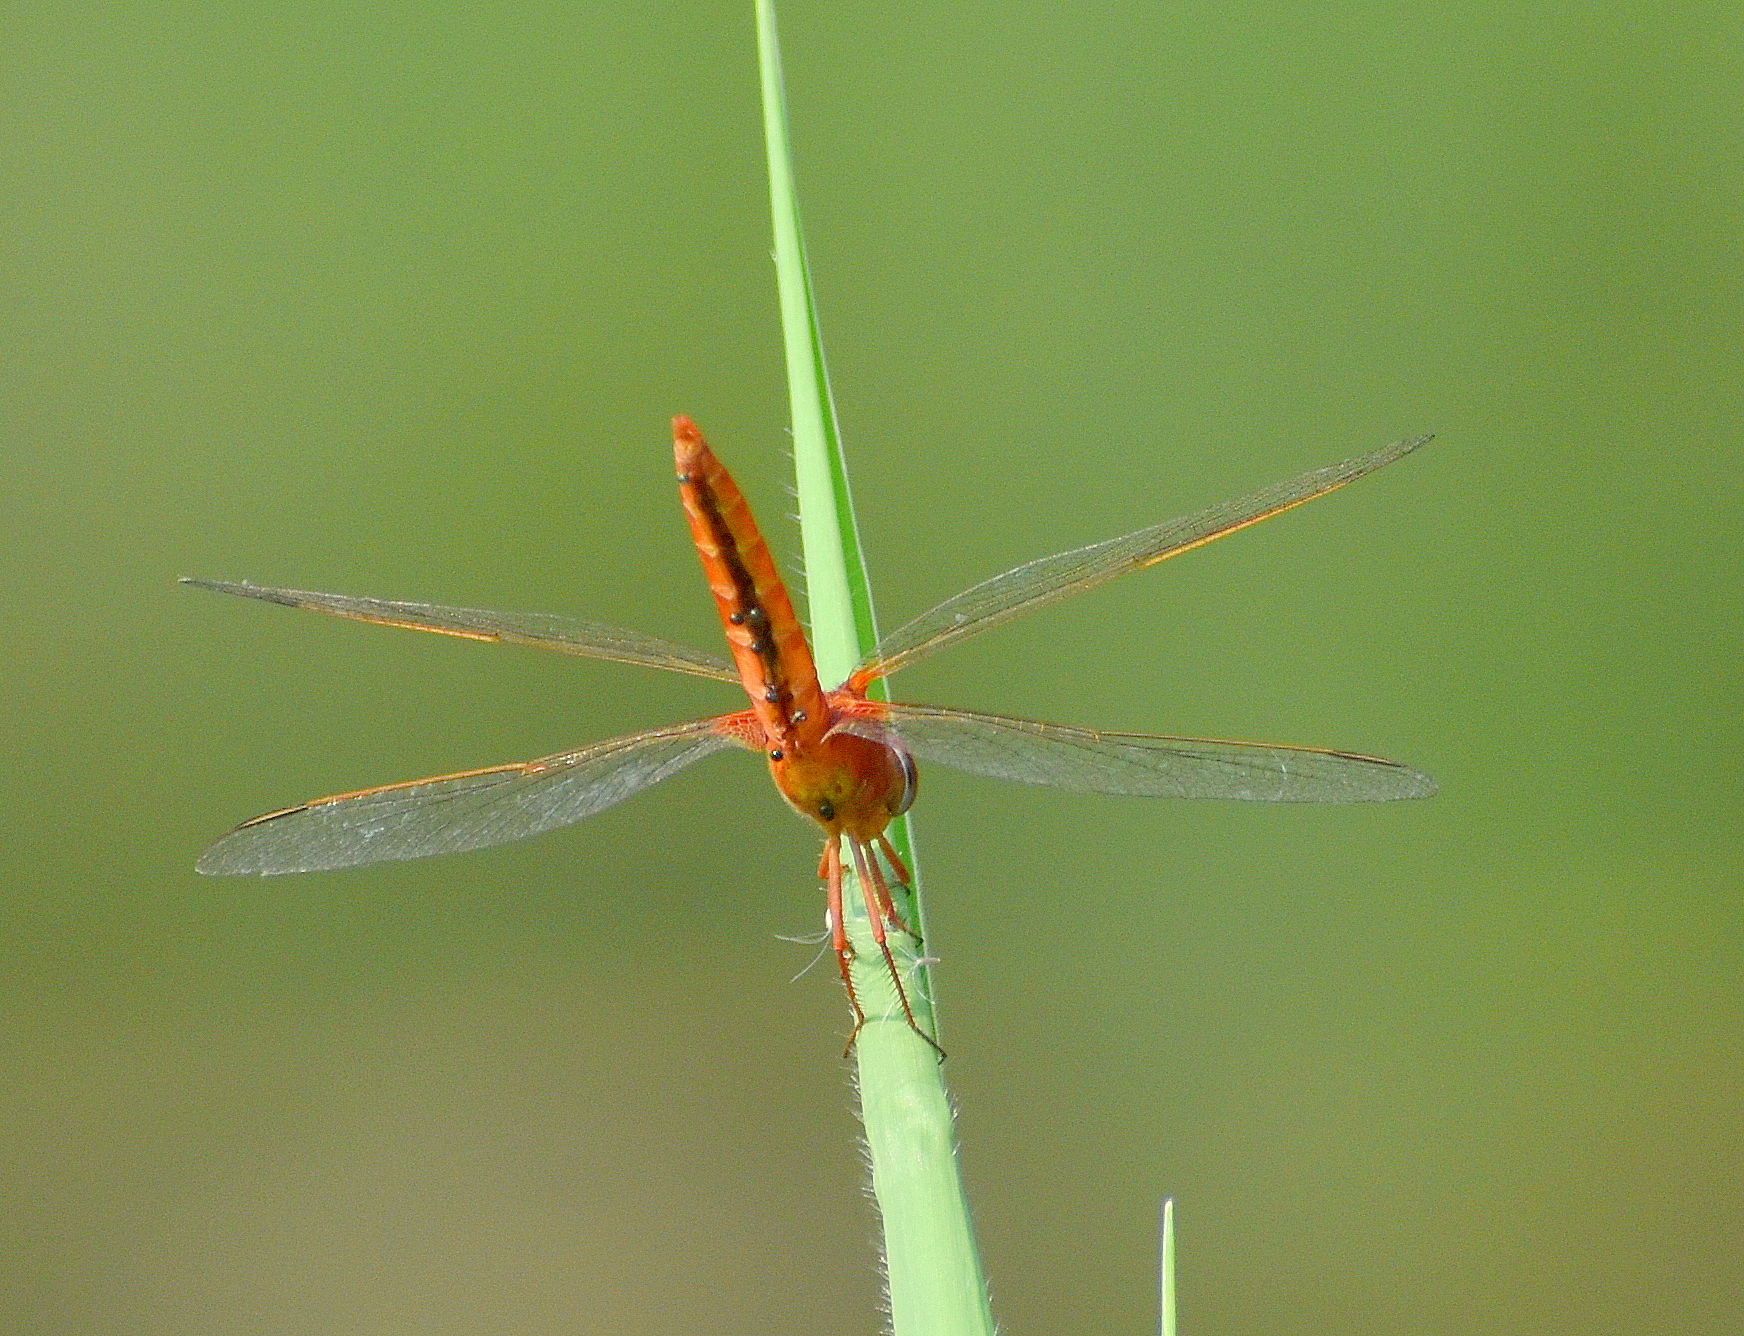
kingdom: Animalia
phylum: Arthropoda
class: Insecta
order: Odonata
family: Libellulidae
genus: Crocothemis
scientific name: Crocothemis servilia
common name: Scarlet skimmer
